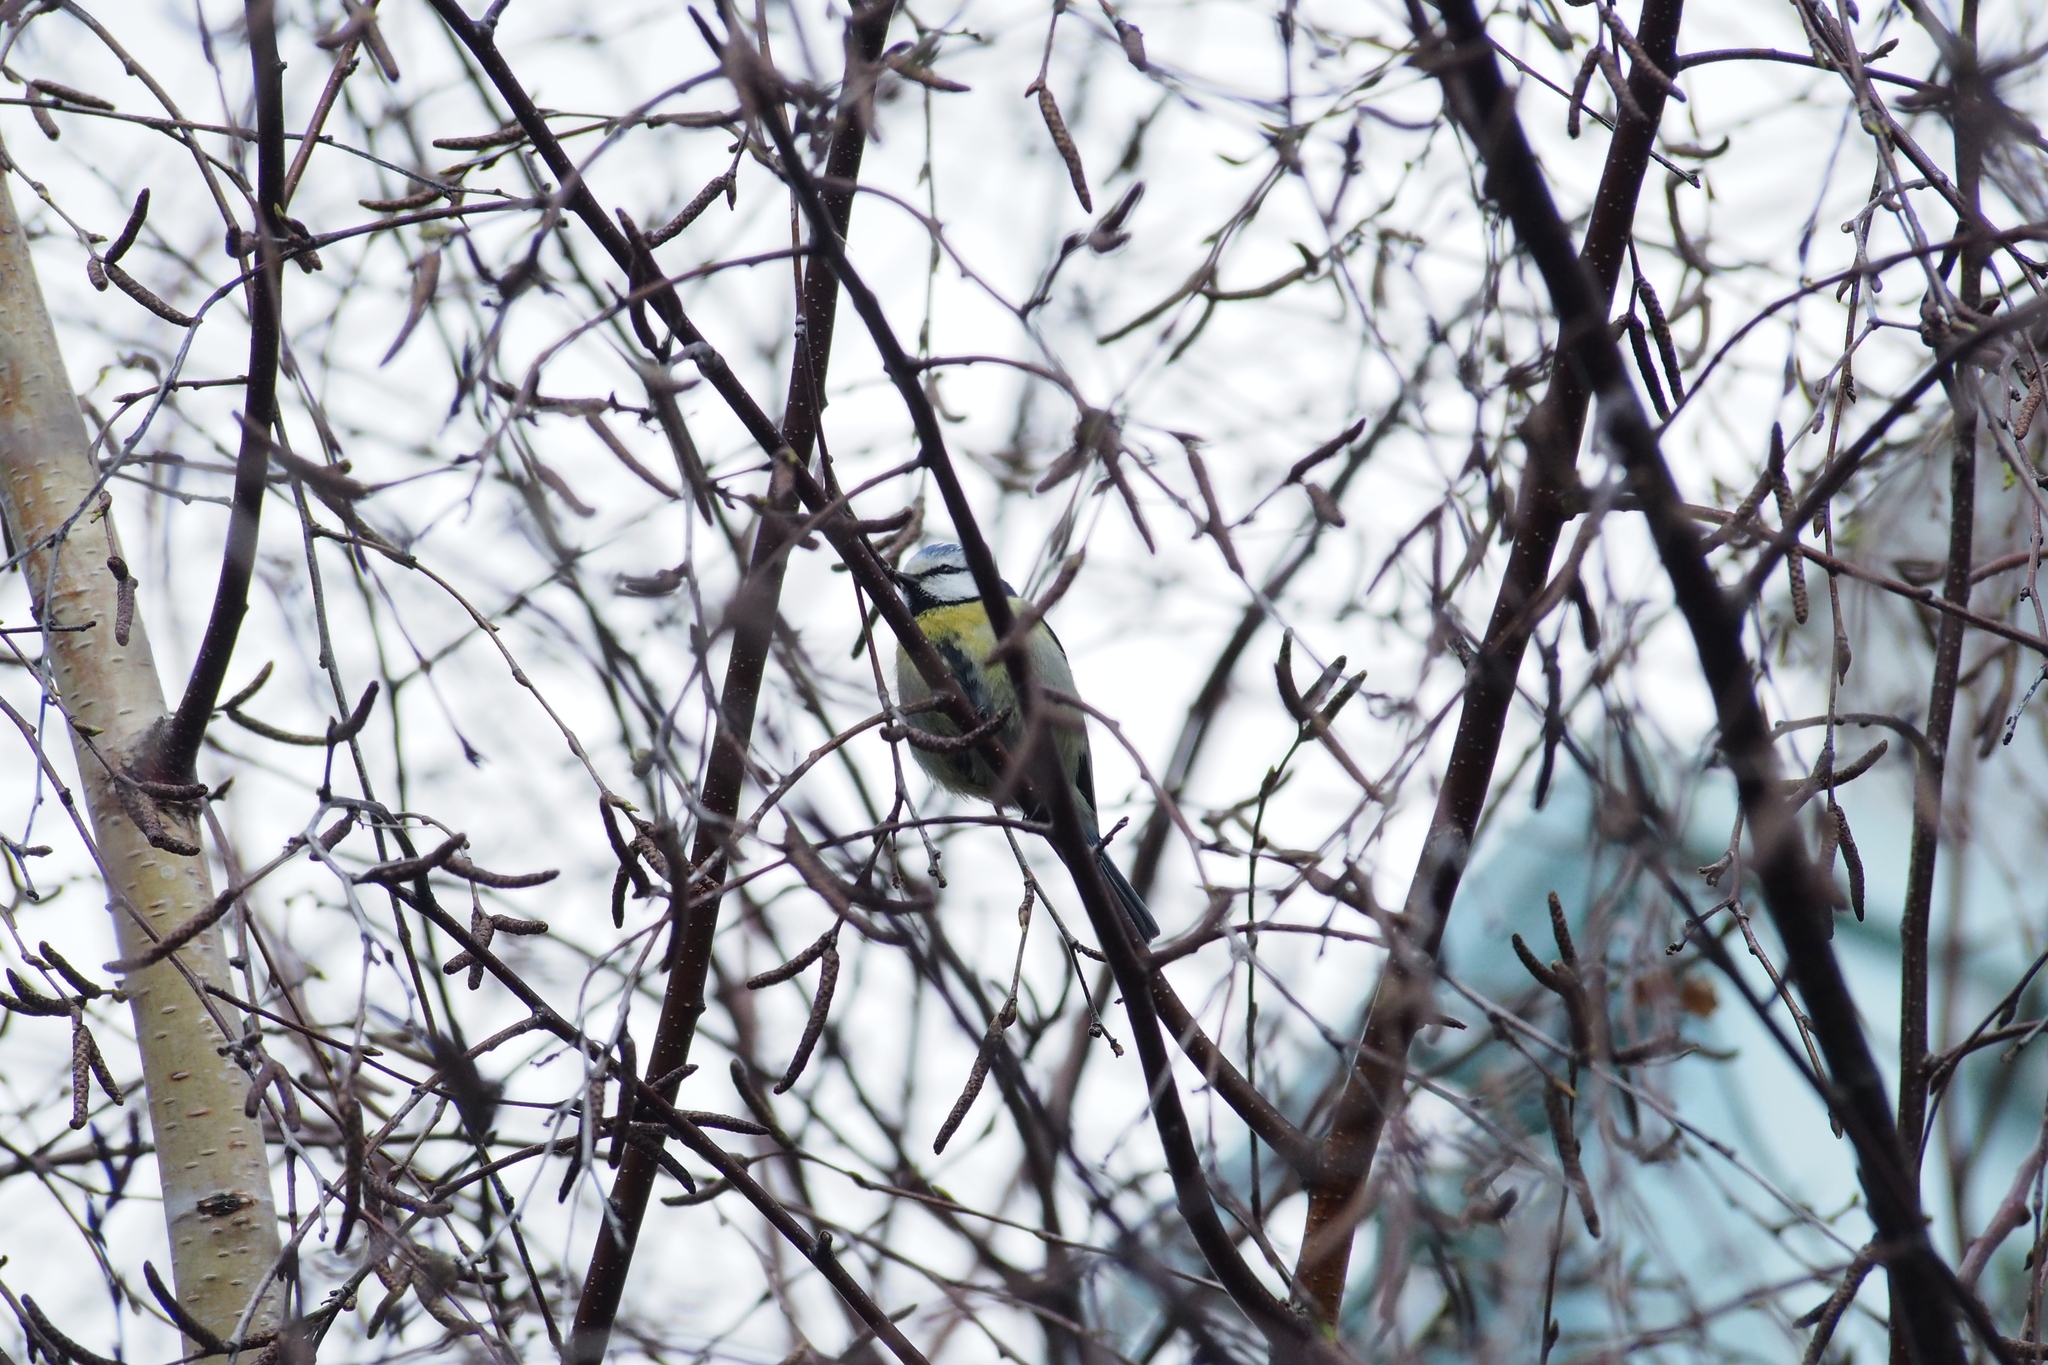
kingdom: Animalia
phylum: Chordata
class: Aves
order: Passeriformes
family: Paridae
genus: Cyanistes
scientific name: Cyanistes caeruleus
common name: Eurasian blue tit
